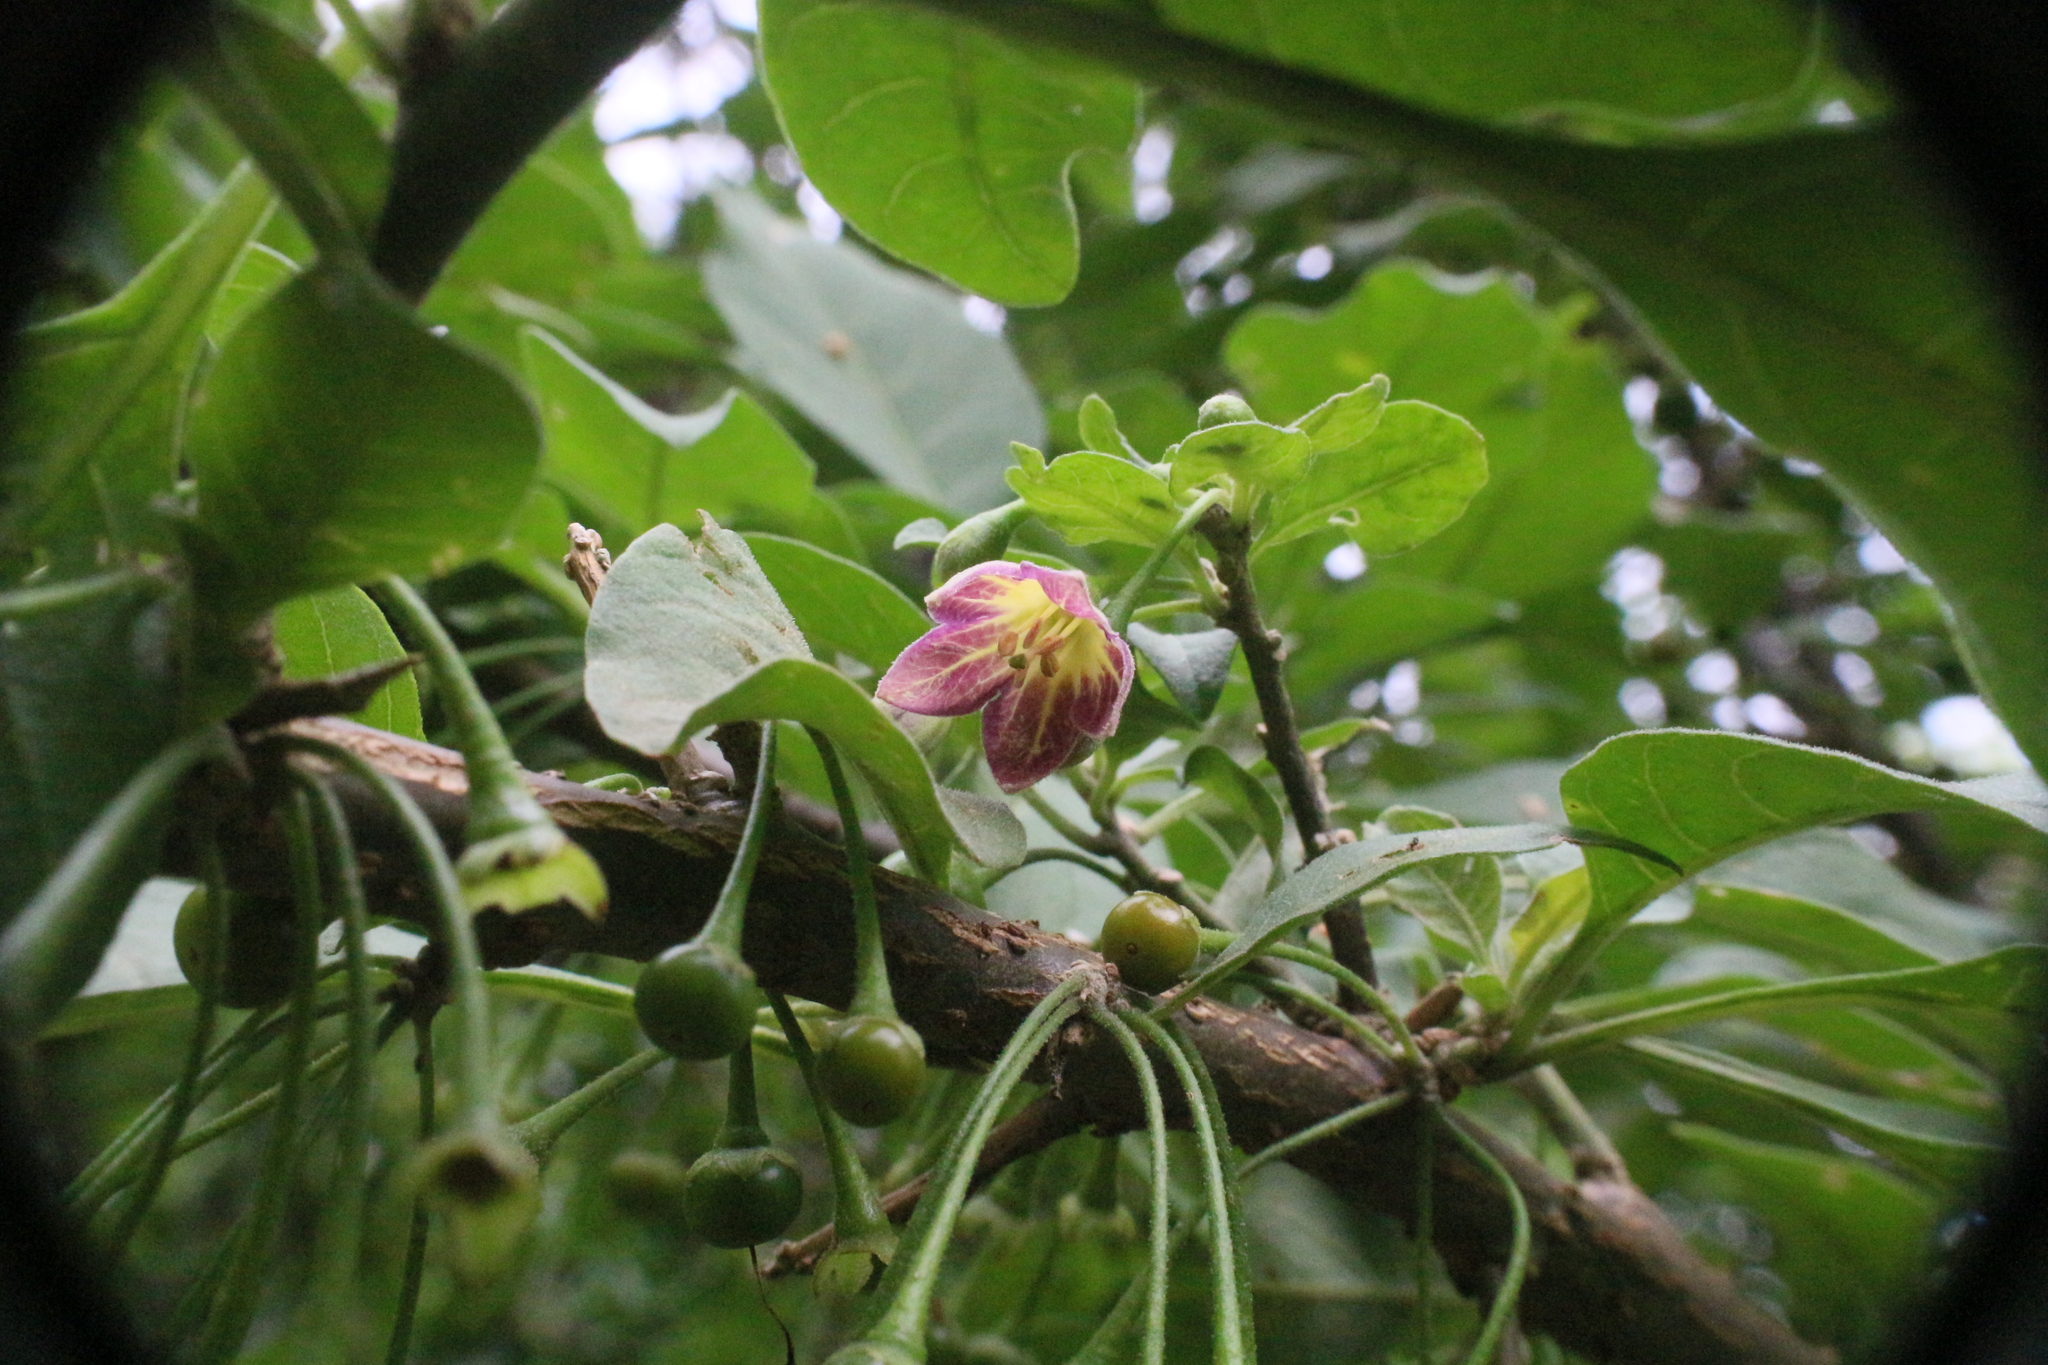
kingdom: Plantae
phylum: Tracheophyta
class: Magnoliopsida
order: Solanales
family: Solanaceae
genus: Vassobia
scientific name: Vassobia breviflora
